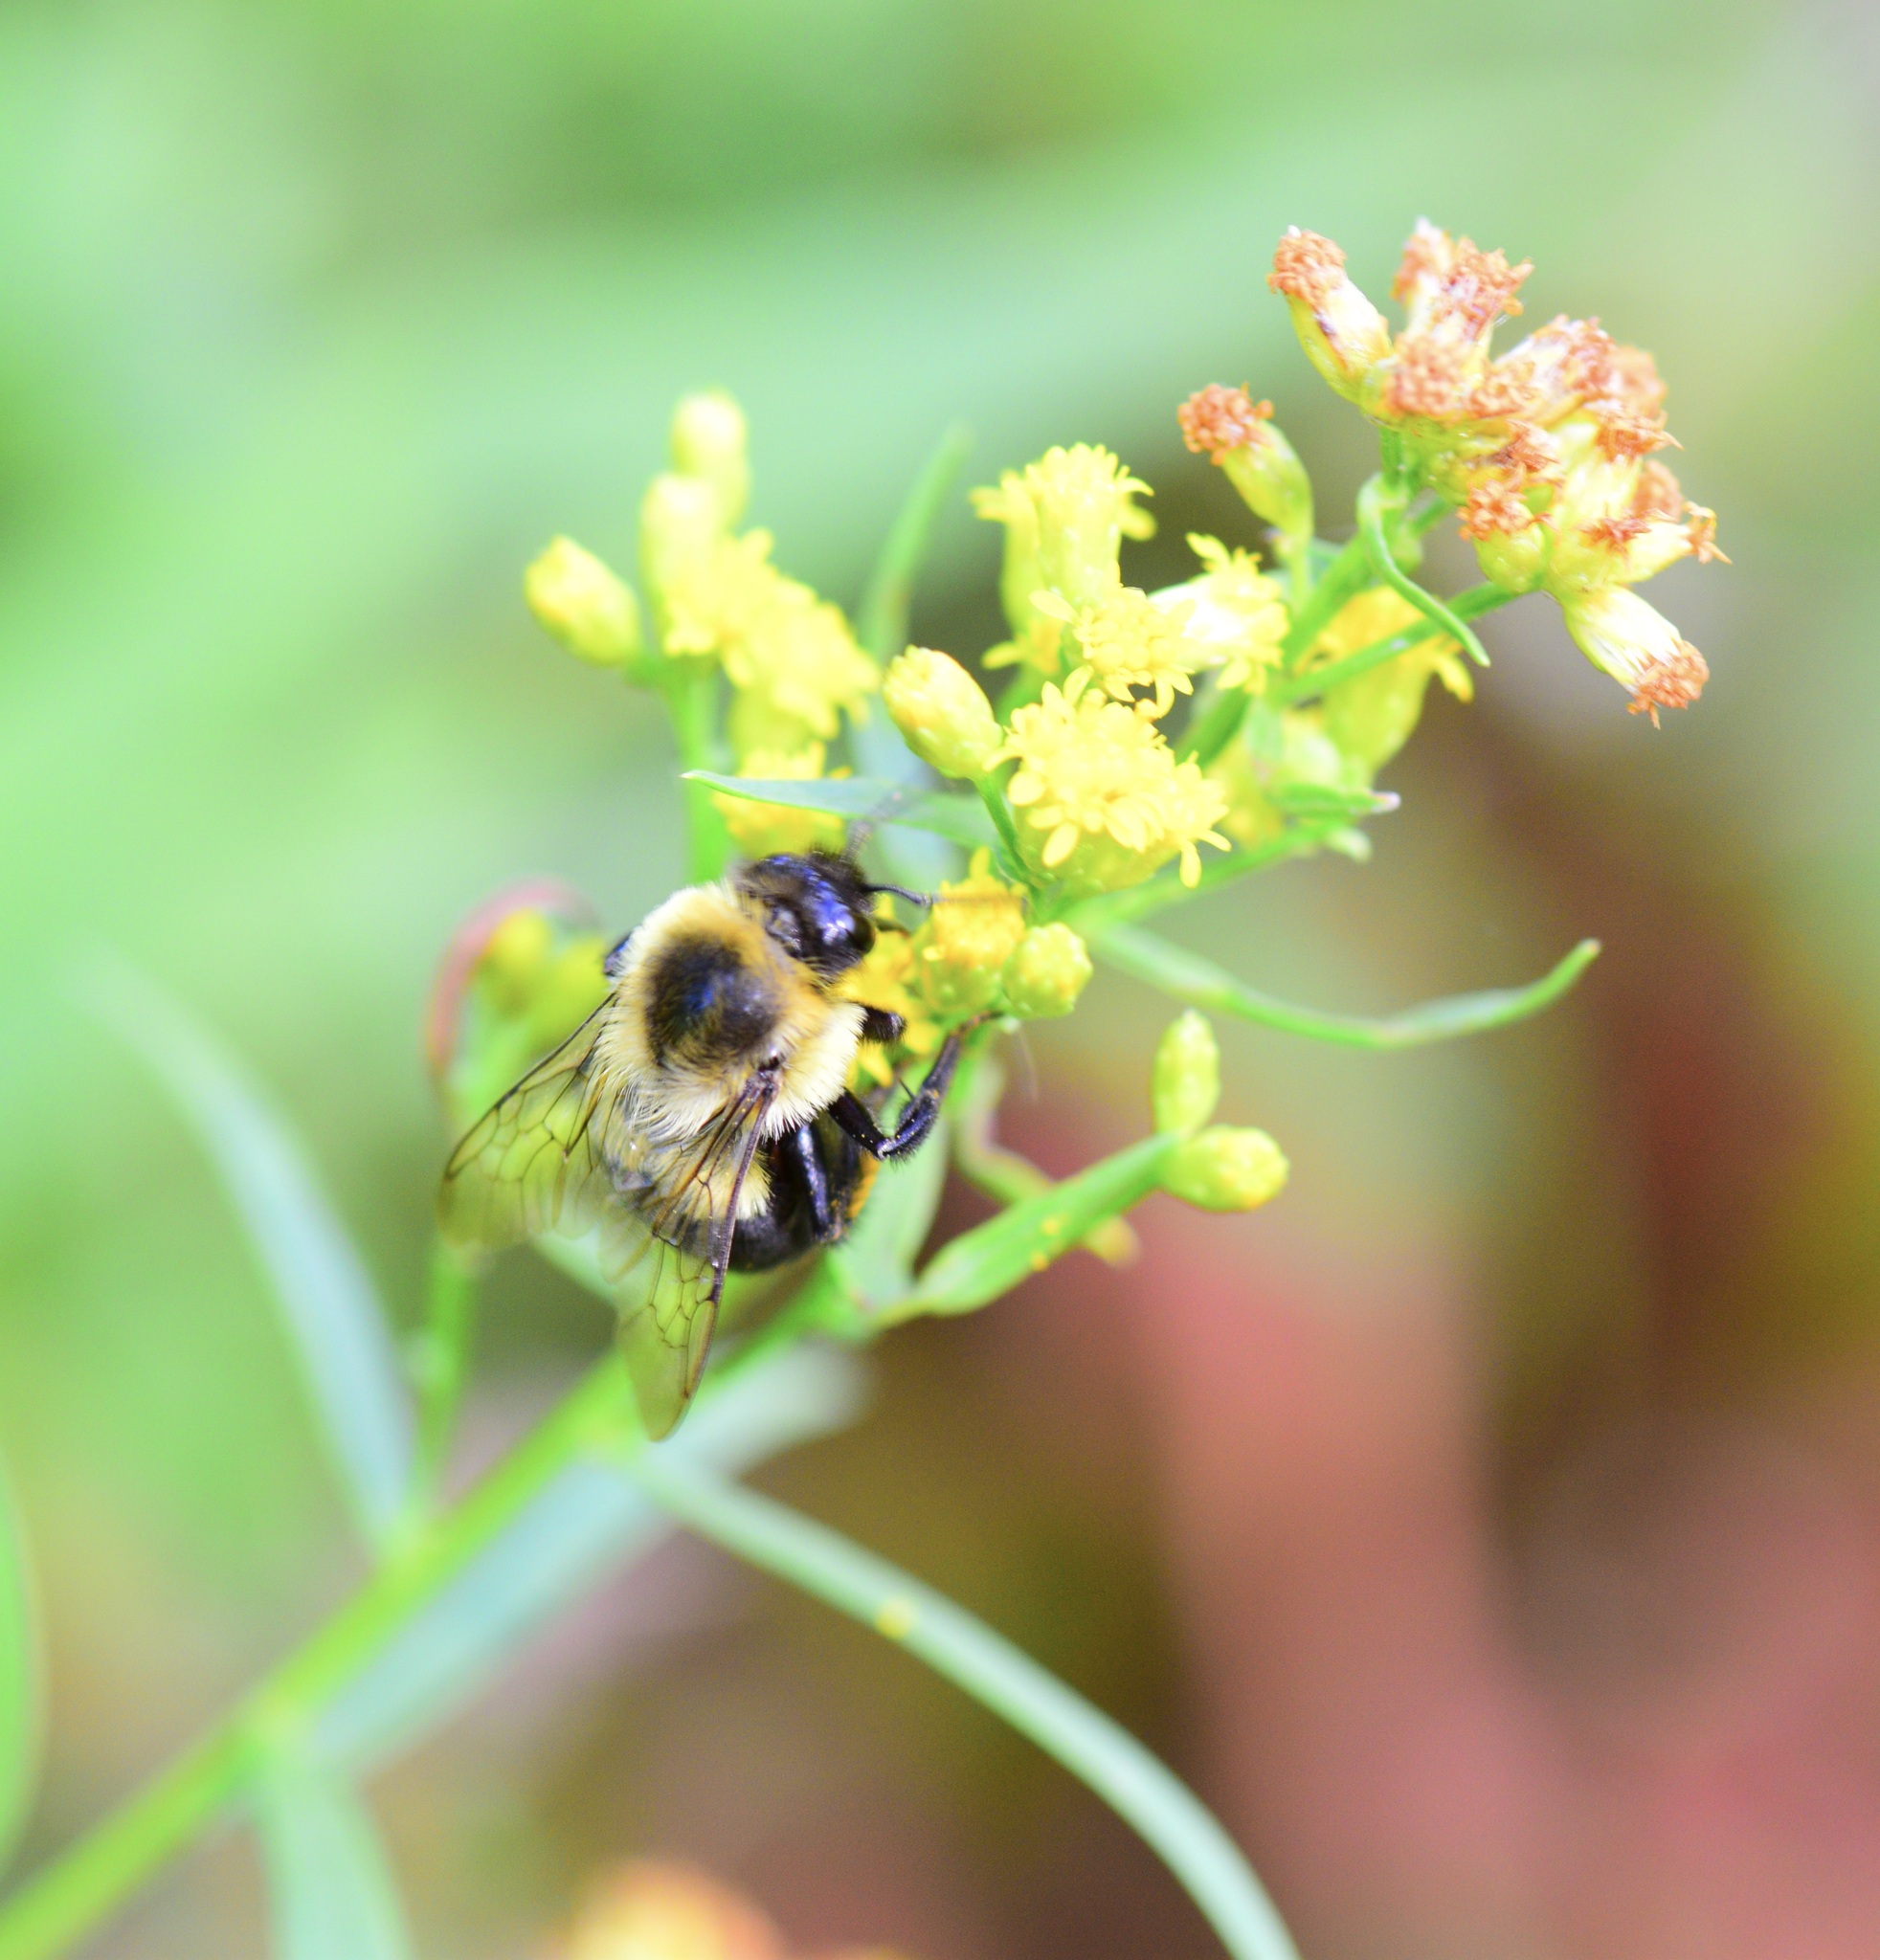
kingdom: Animalia
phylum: Arthropoda
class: Insecta
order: Hymenoptera
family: Apidae
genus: Bombus
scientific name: Bombus impatiens
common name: Common eastern bumble bee
